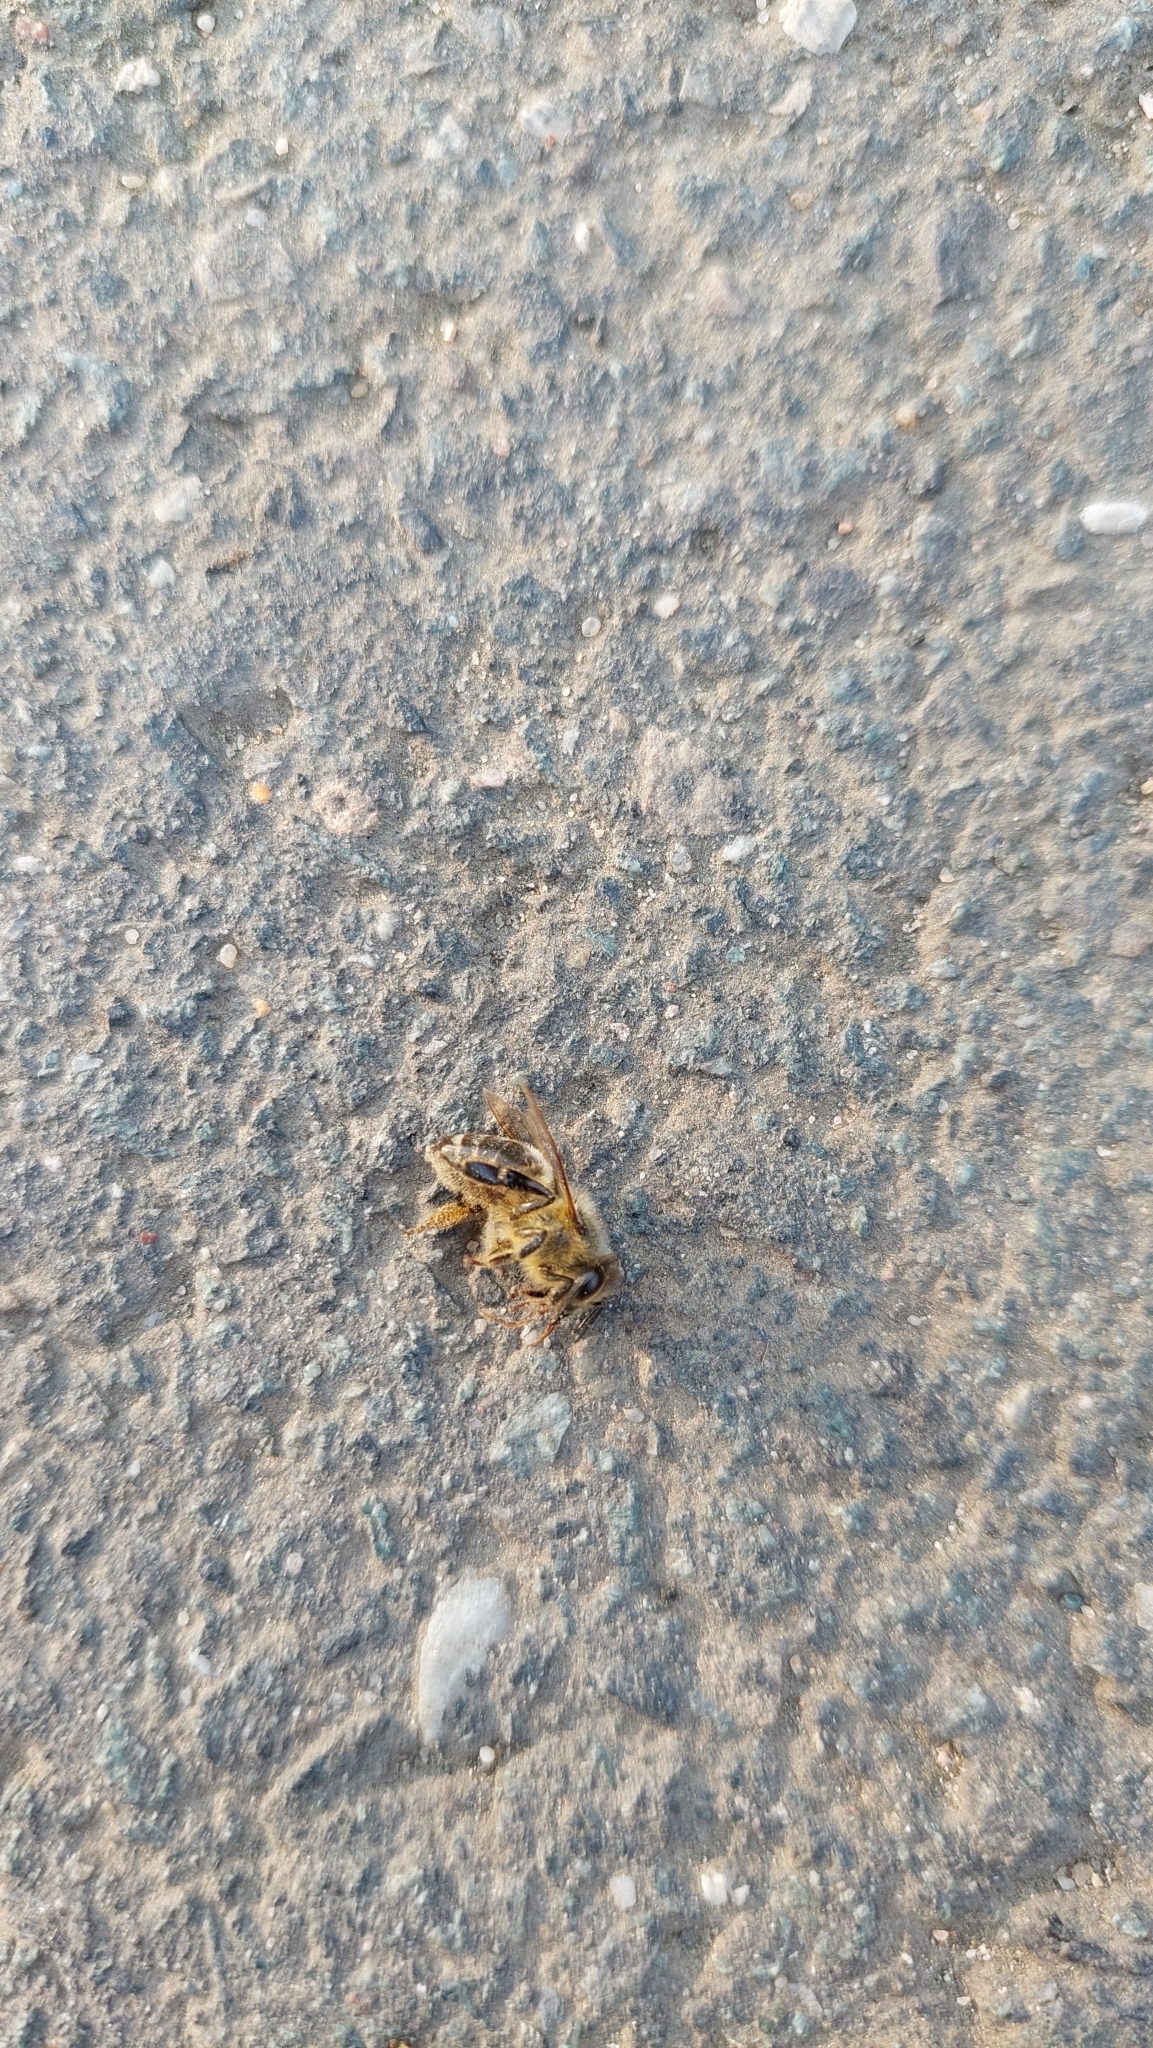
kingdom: Animalia
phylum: Arthropoda
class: Insecta
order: Hymenoptera
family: Apidae
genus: Apis
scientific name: Apis mellifera
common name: Honey bee
